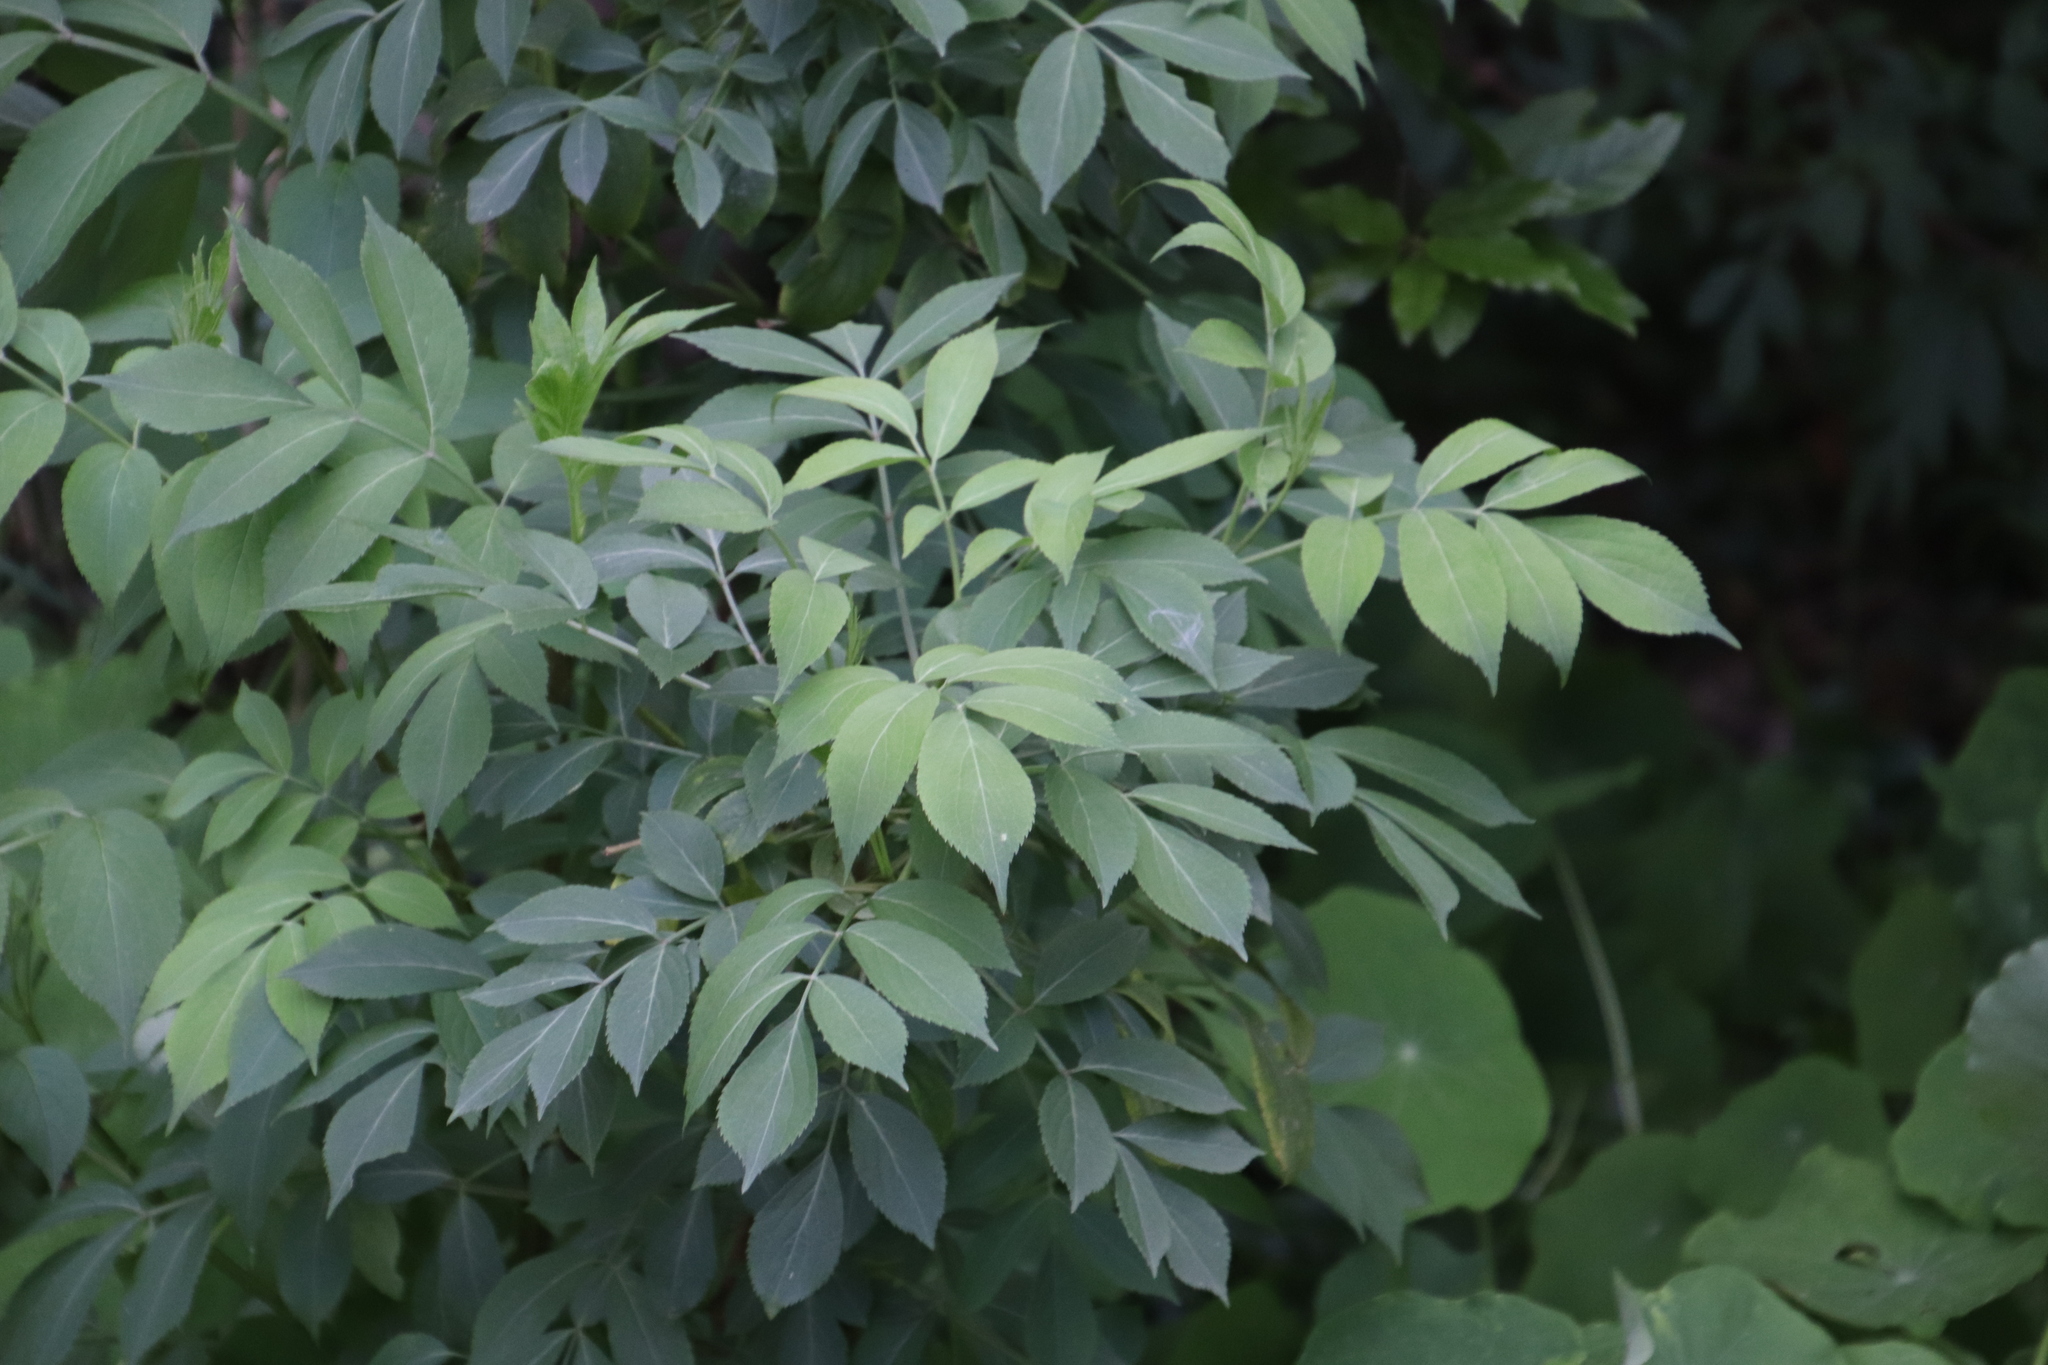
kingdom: Plantae
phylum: Tracheophyta
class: Magnoliopsida
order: Dipsacales
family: Viburnaceae
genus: Sambucus
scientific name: Sambucus nigra
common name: Elder
